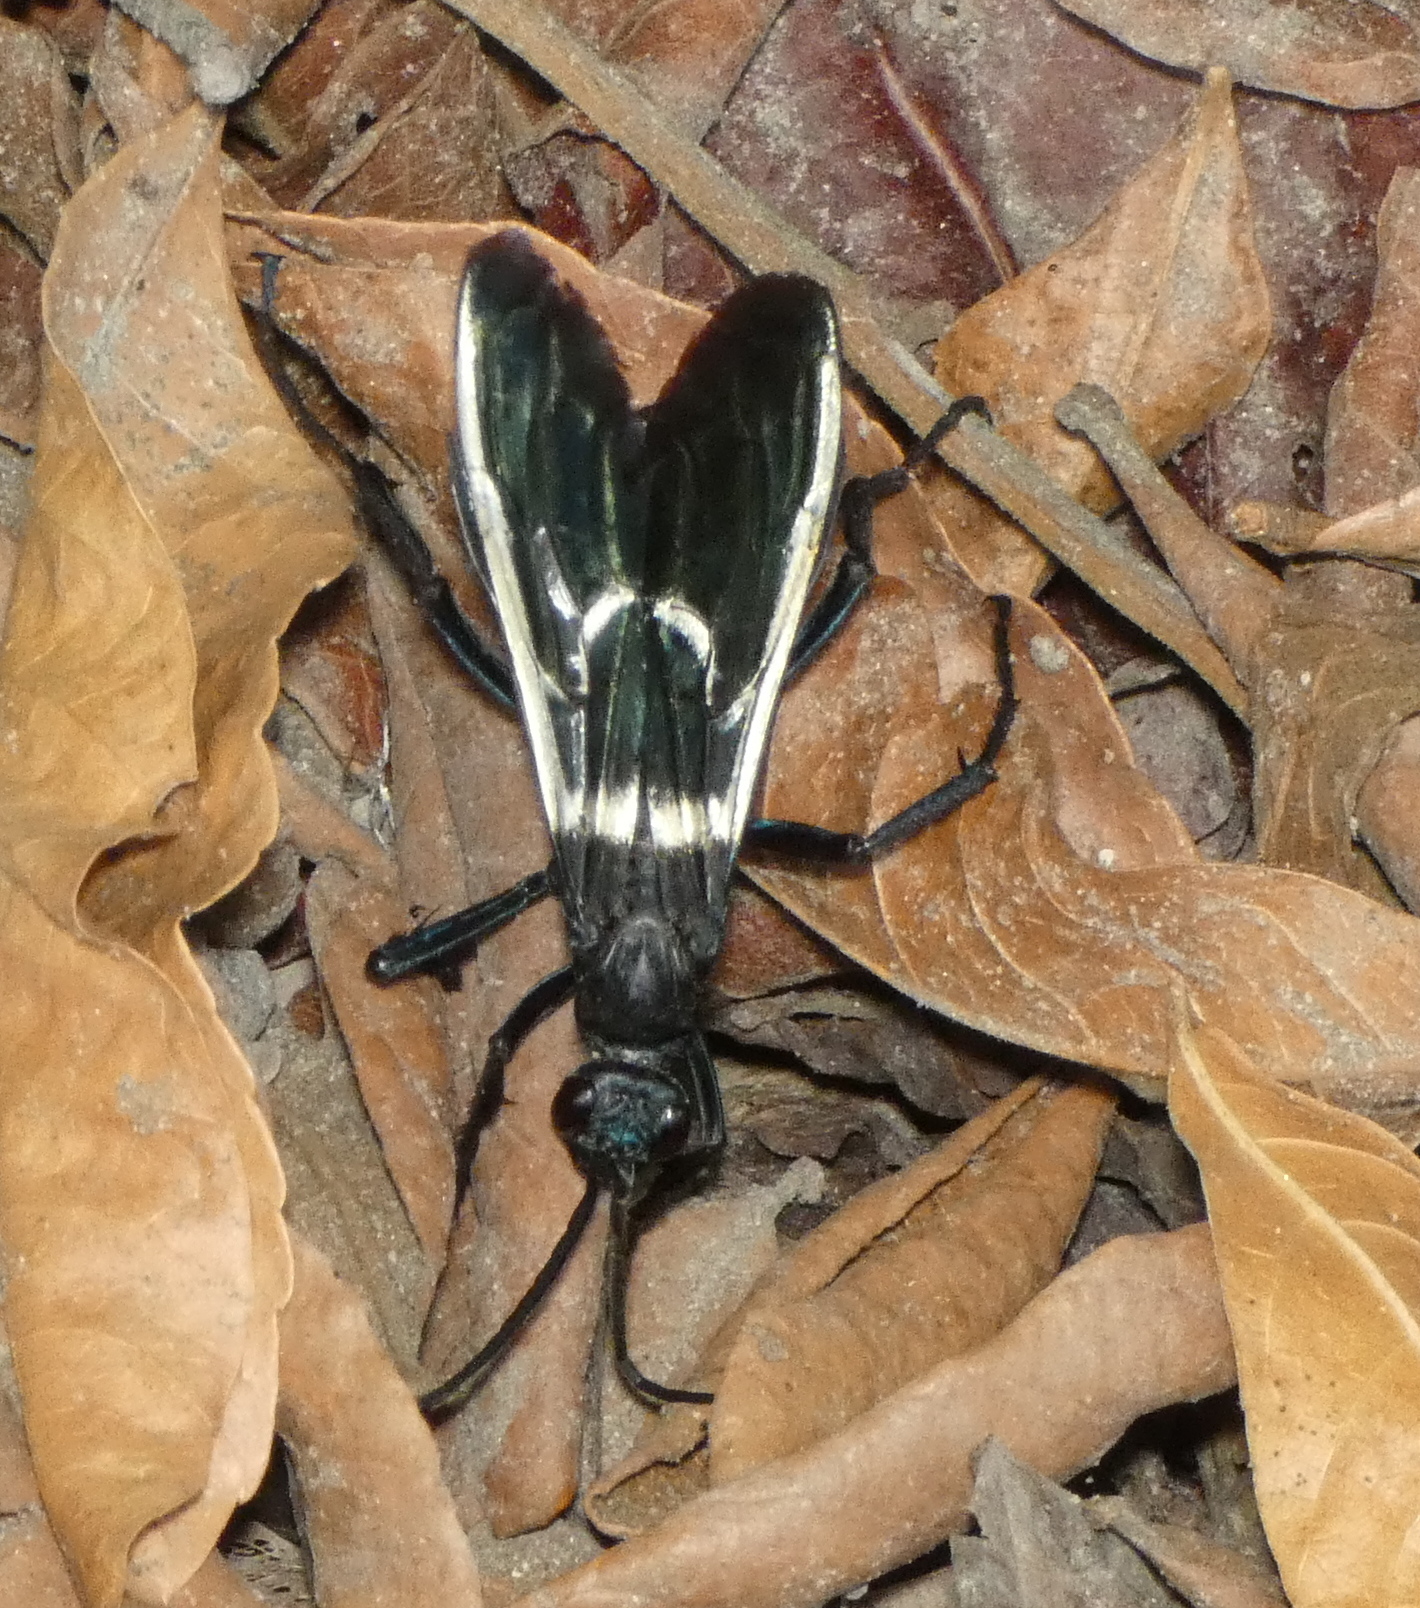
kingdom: Animalia
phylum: Arthropoda
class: Insecta
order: Hymenoptera
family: Pompilidae
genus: Pepsis
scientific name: Pepsis decorata
